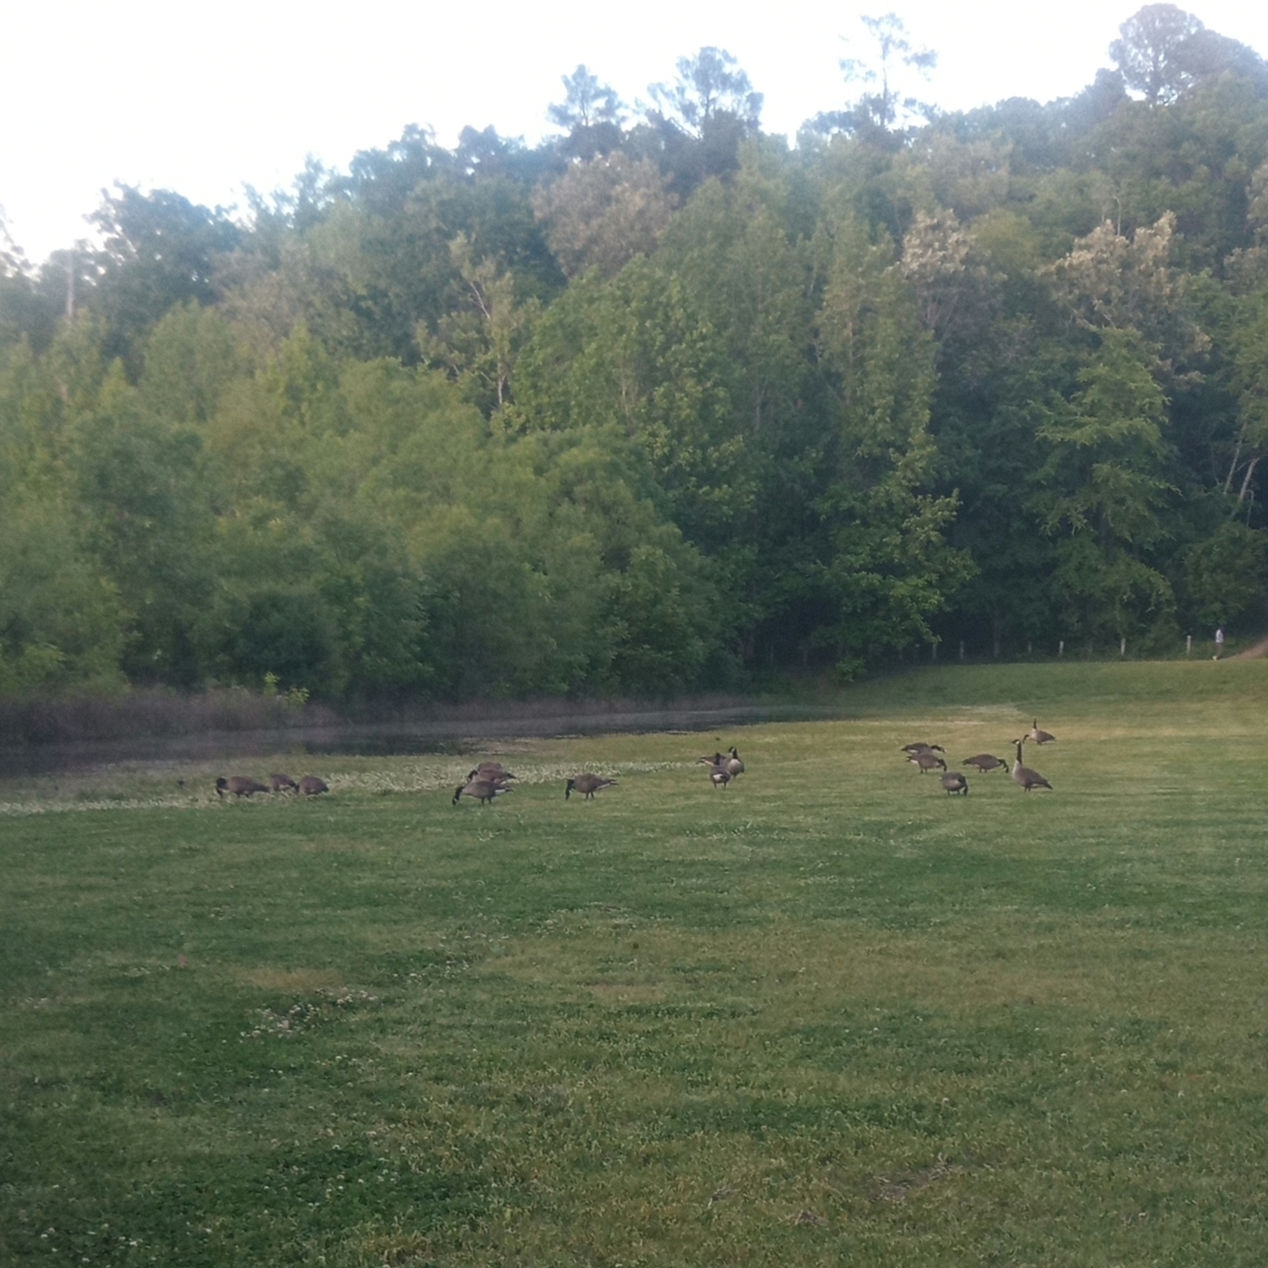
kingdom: Animalia
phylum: Chordata
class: Aves
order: Anseriformes
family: Anatidae
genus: Branta
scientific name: Branta canadensis
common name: Canada goose
